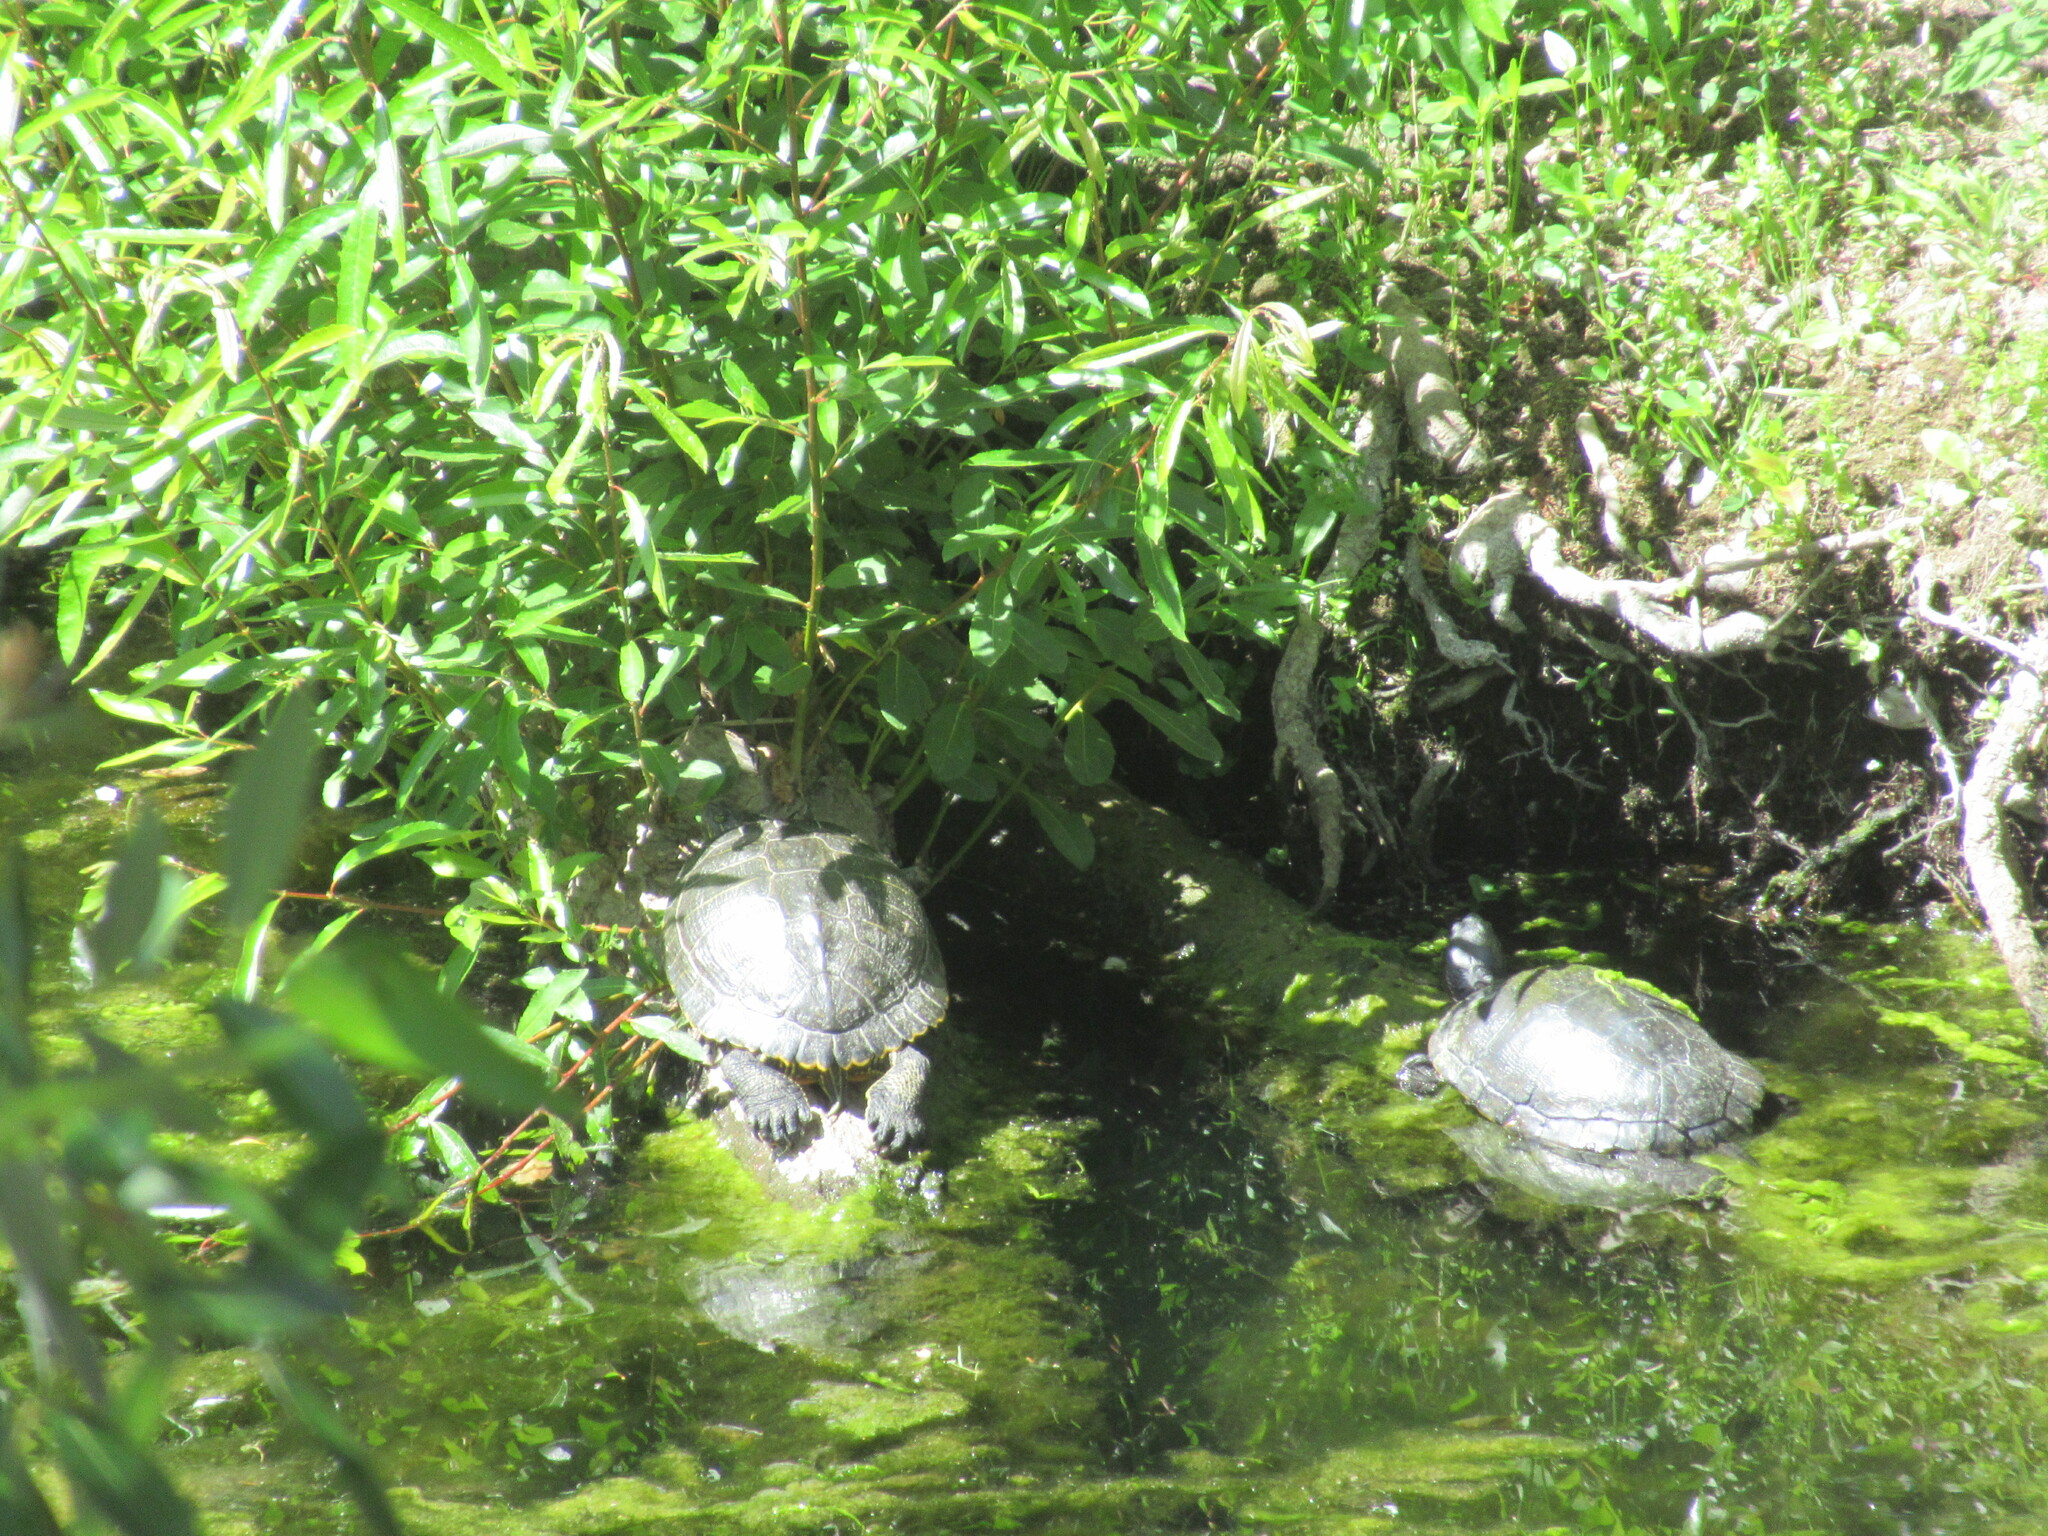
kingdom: Animalia
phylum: Chordata
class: Testudines
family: Emydidae
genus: Trachemys
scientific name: Trachemys scripta
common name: Slider
